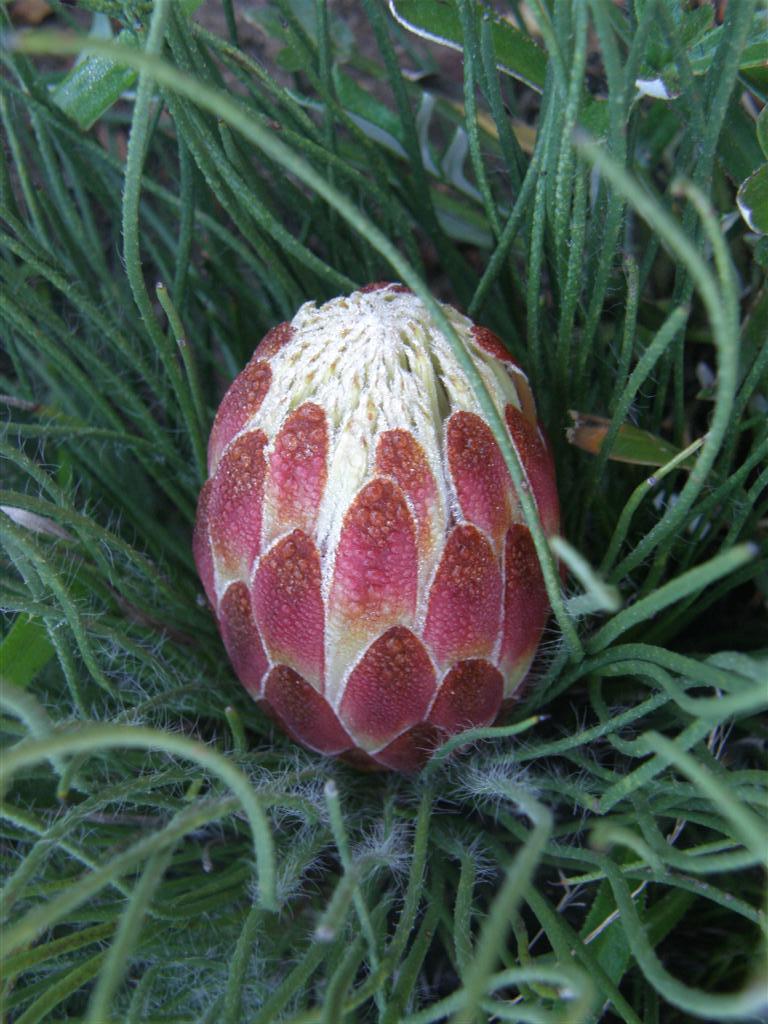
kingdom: Plantae
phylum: Tracheophyta
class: Magnoliopsida
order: Proteales
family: Proteaceae
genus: Protea
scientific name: Protea restionifolia
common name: Reed-leaf sugarbush
